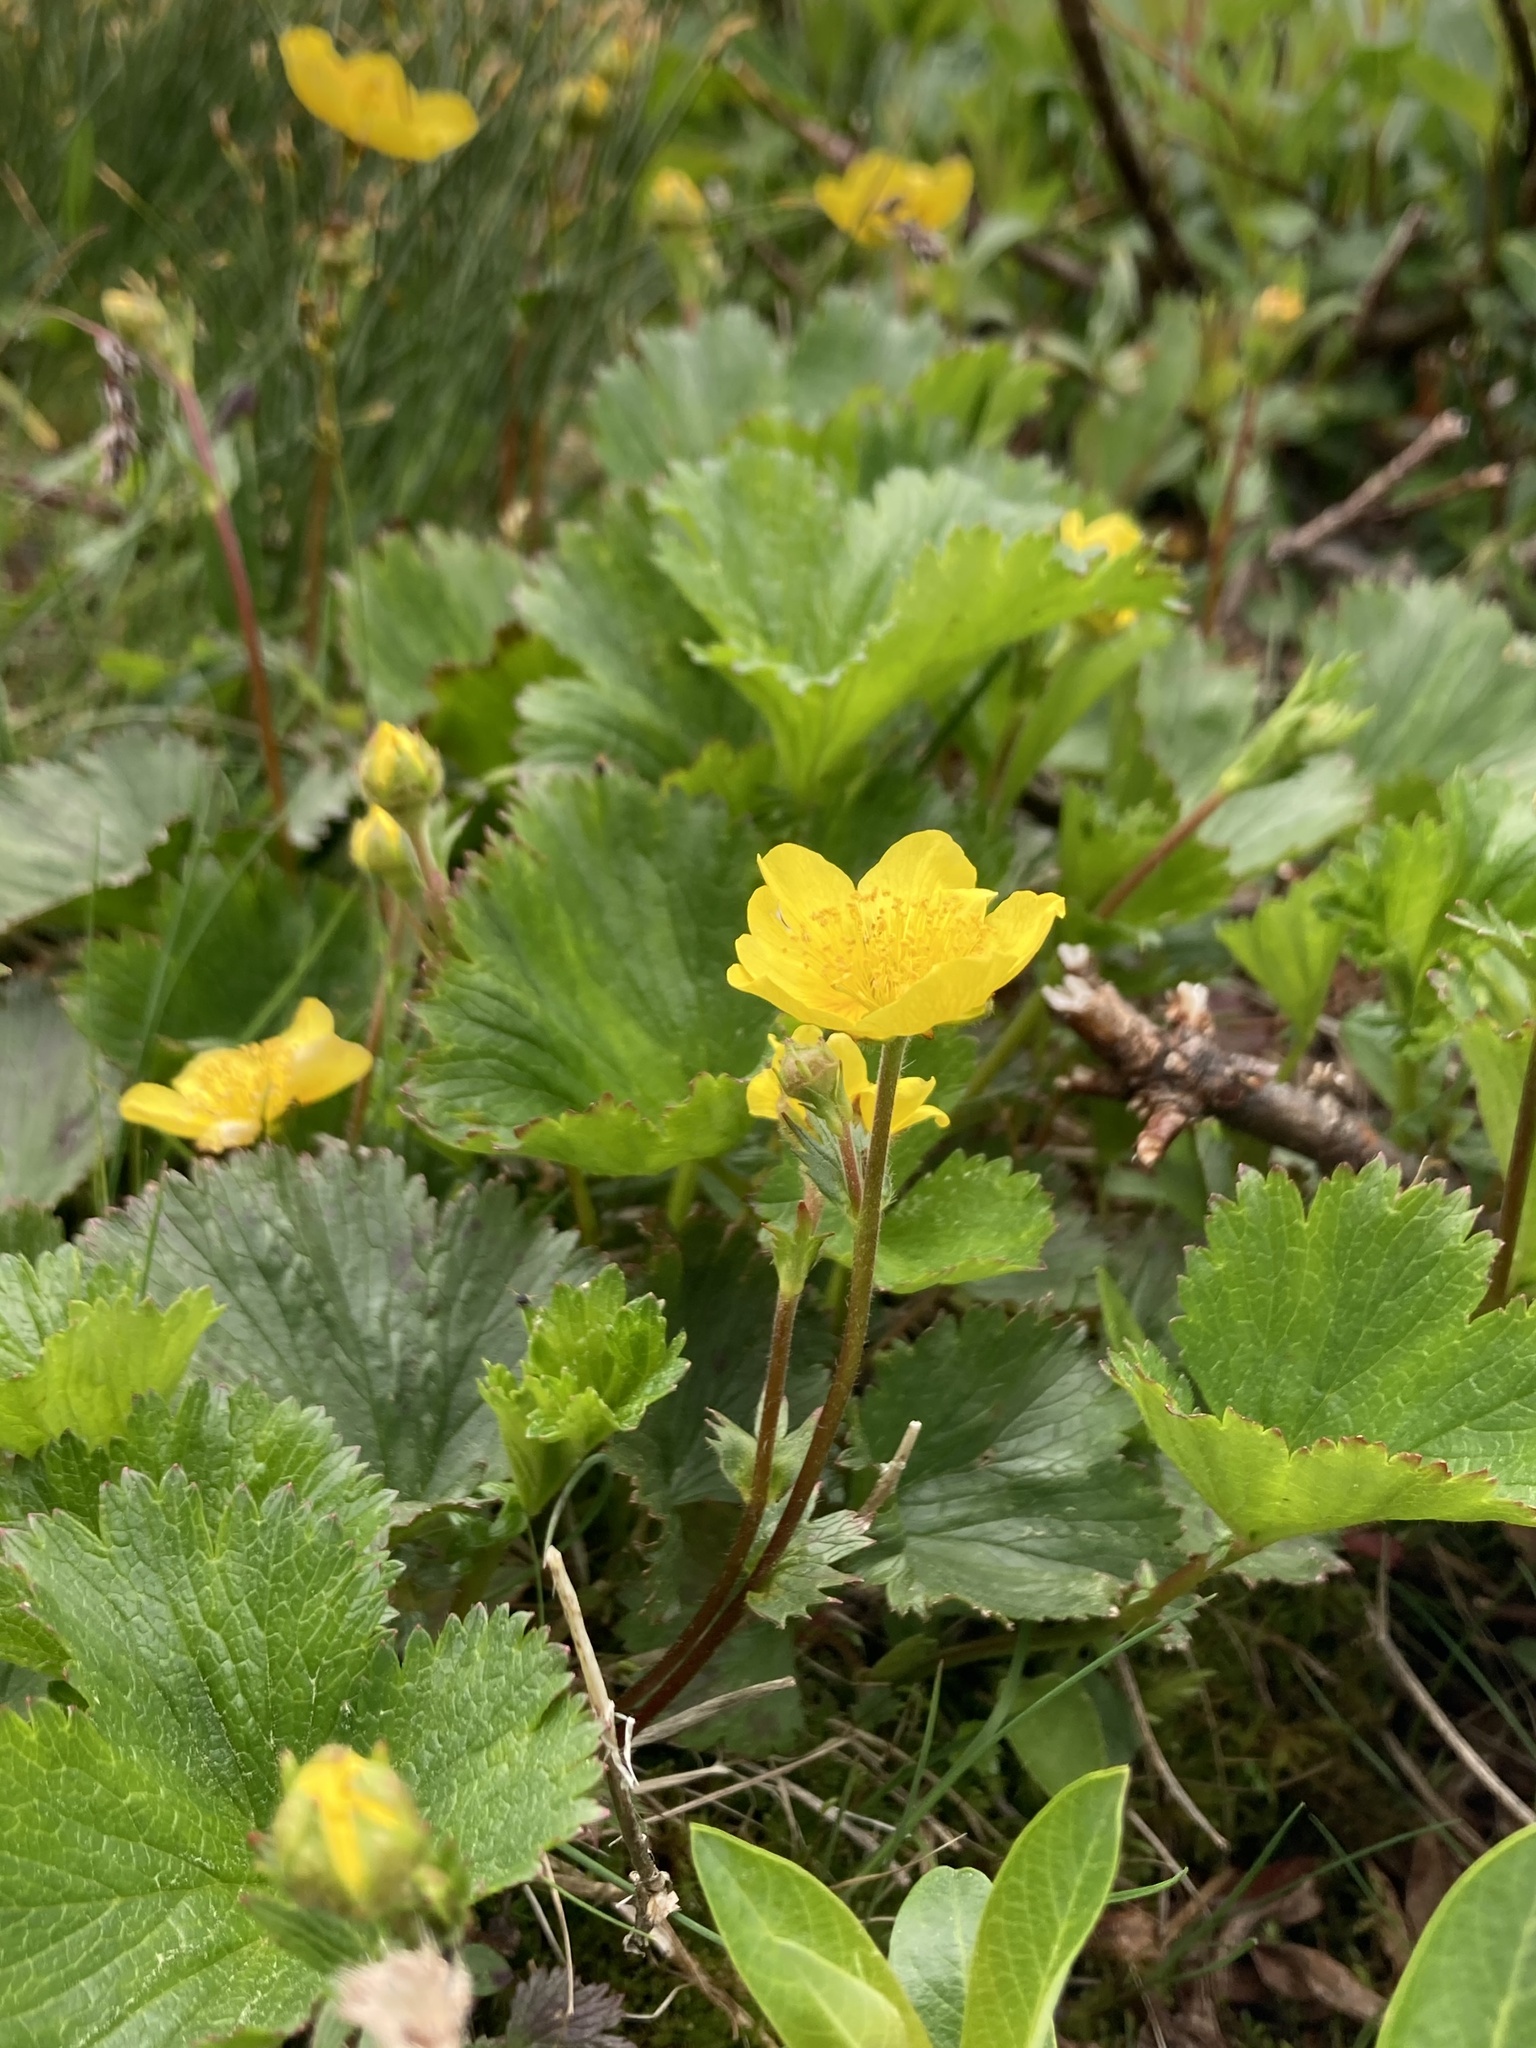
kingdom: Plantae
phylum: Tracheophyta
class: Magnoliopsida
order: Rosales
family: Rosaceae
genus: Geum
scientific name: Geum peckii
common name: Eastern mountain avens
